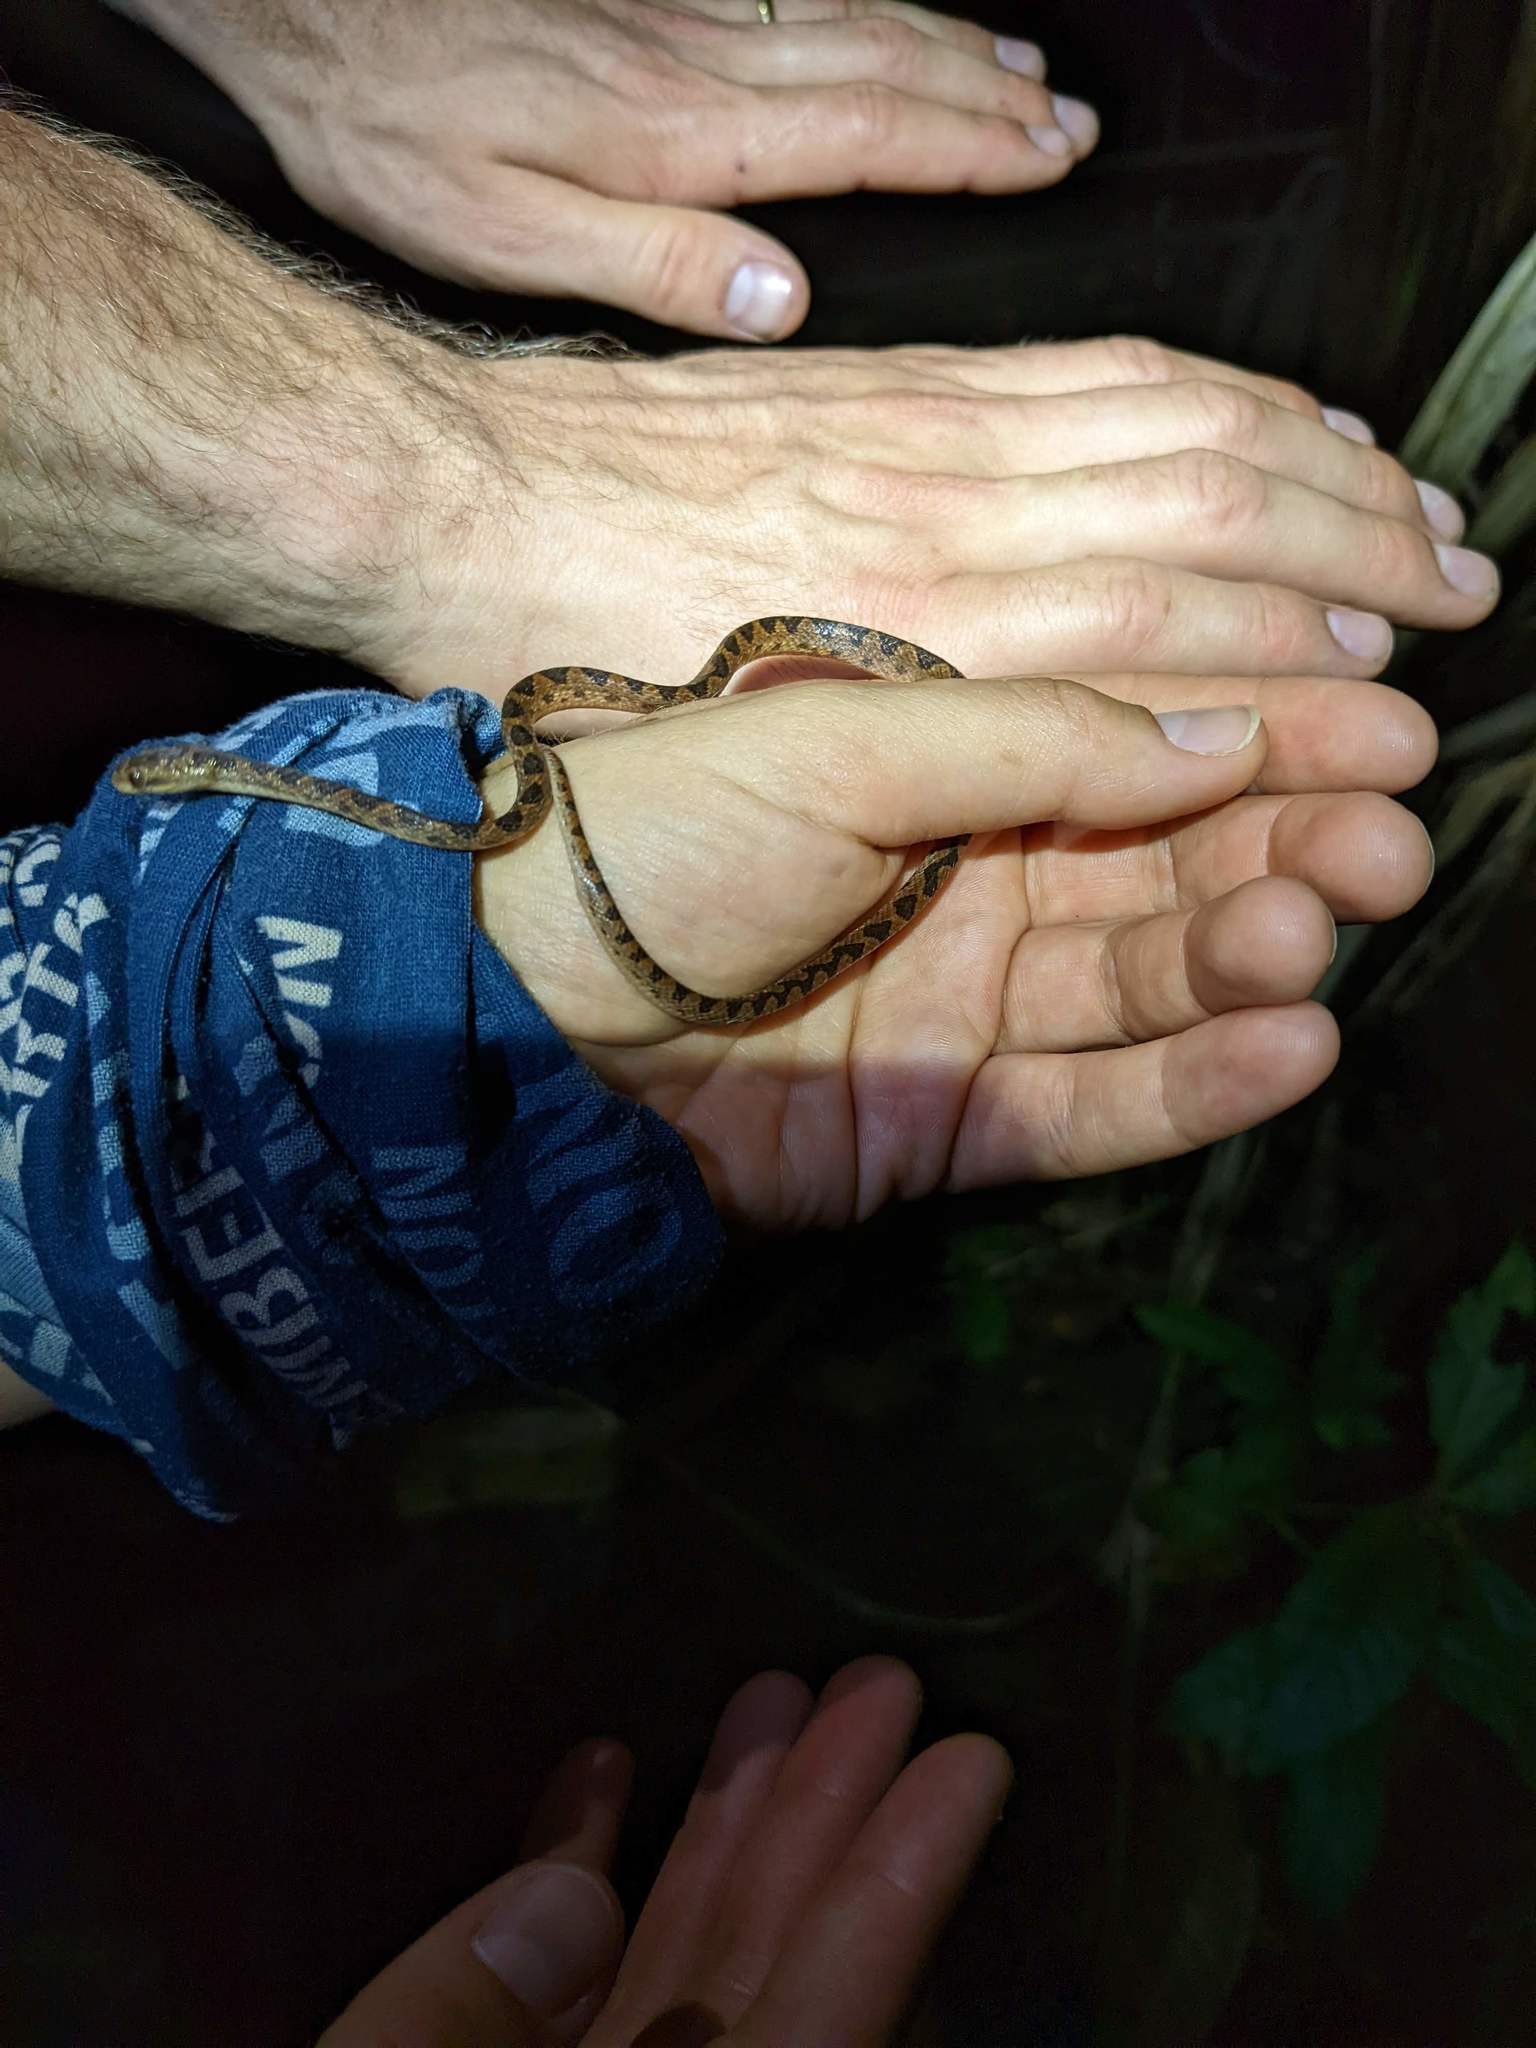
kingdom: Animalia
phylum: Chordata
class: Squamata
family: Colubridae
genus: Leptodeira
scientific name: Leptodeira ornata
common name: Northern cat-eyed snake
